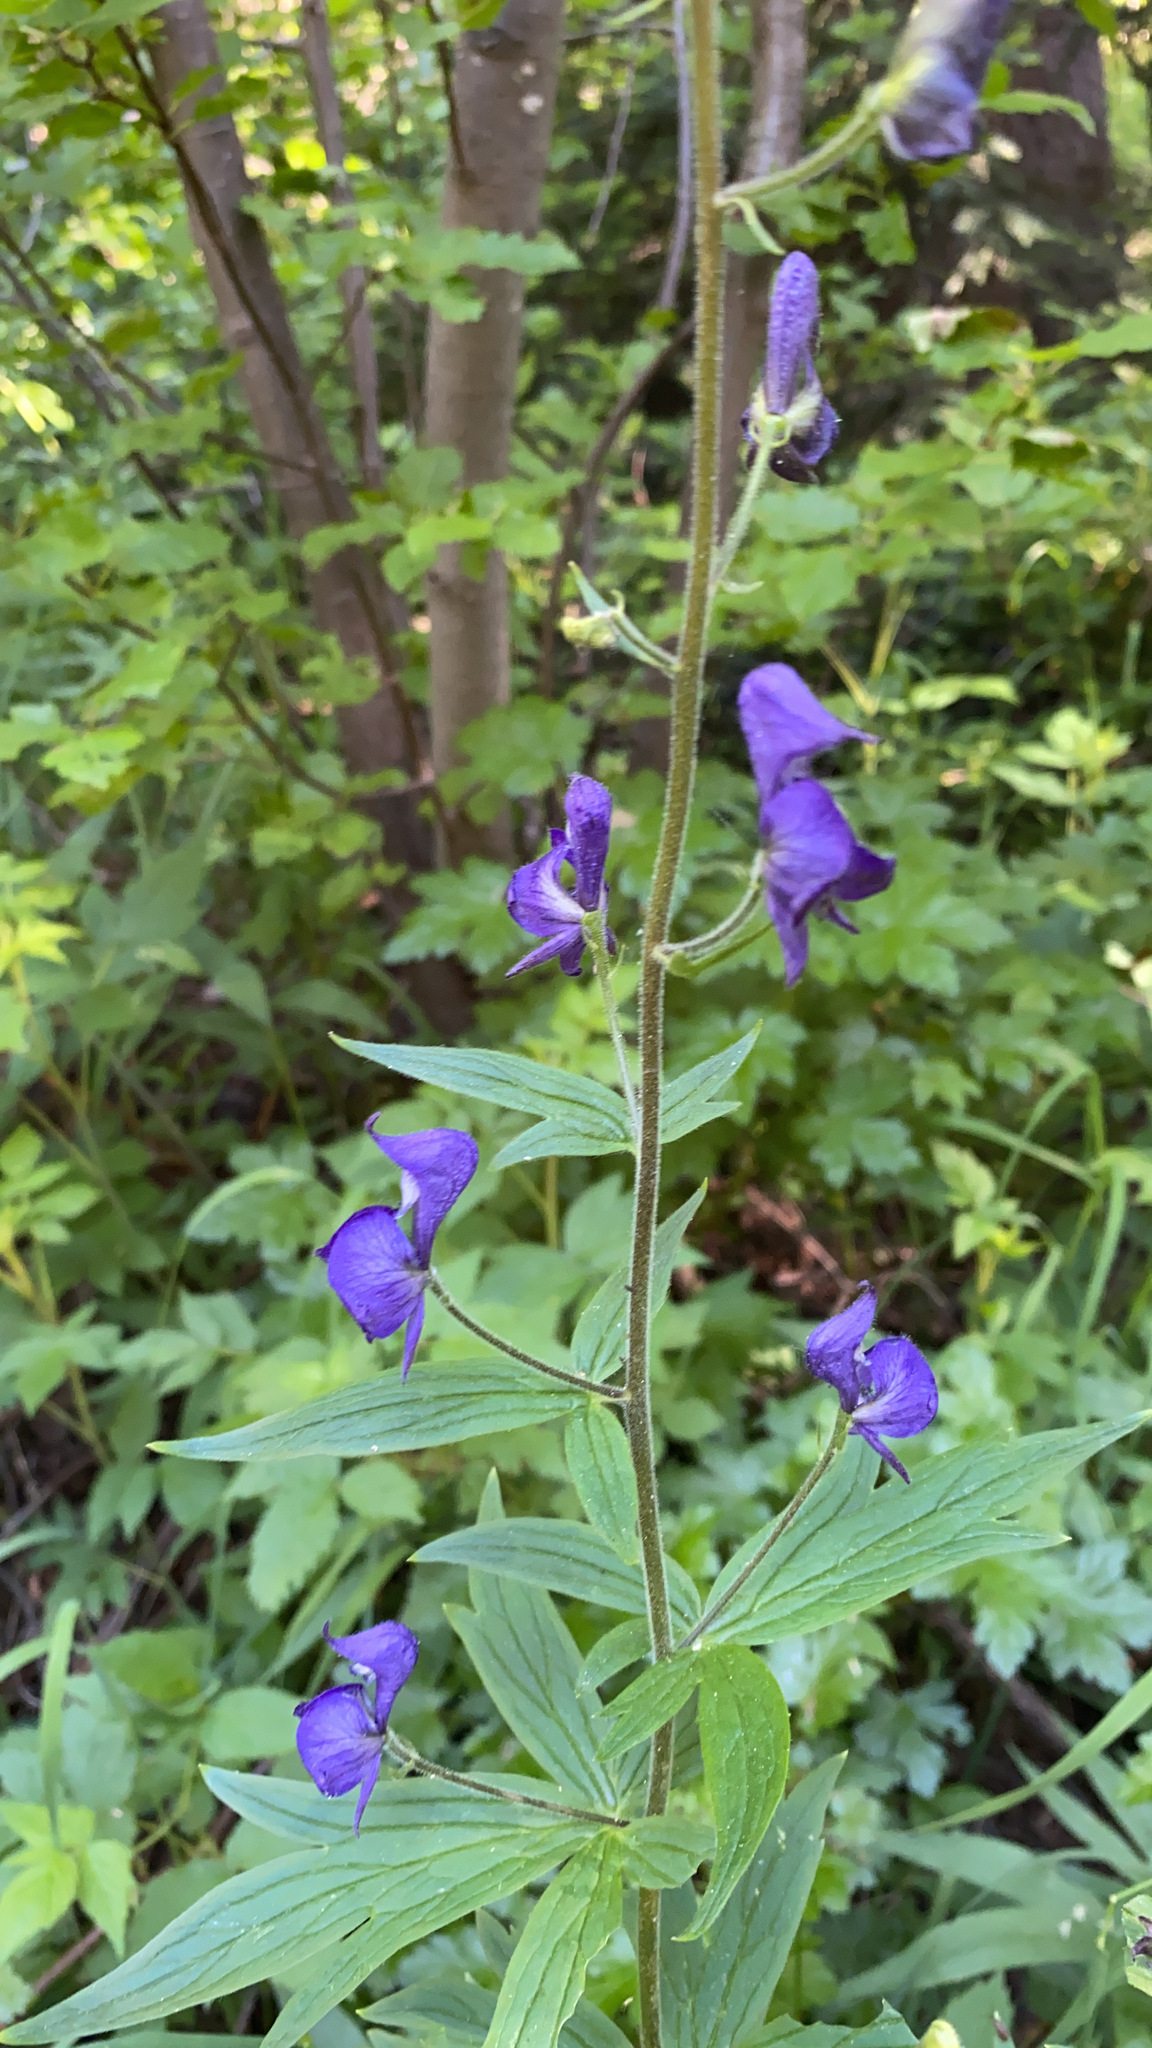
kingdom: Plantae
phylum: Tracheophyta
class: Magnoliopsida
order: Ranunculales
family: Ranunculaceae
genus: Aconitum
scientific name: Aconitum columbianum
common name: Columbia aconite
